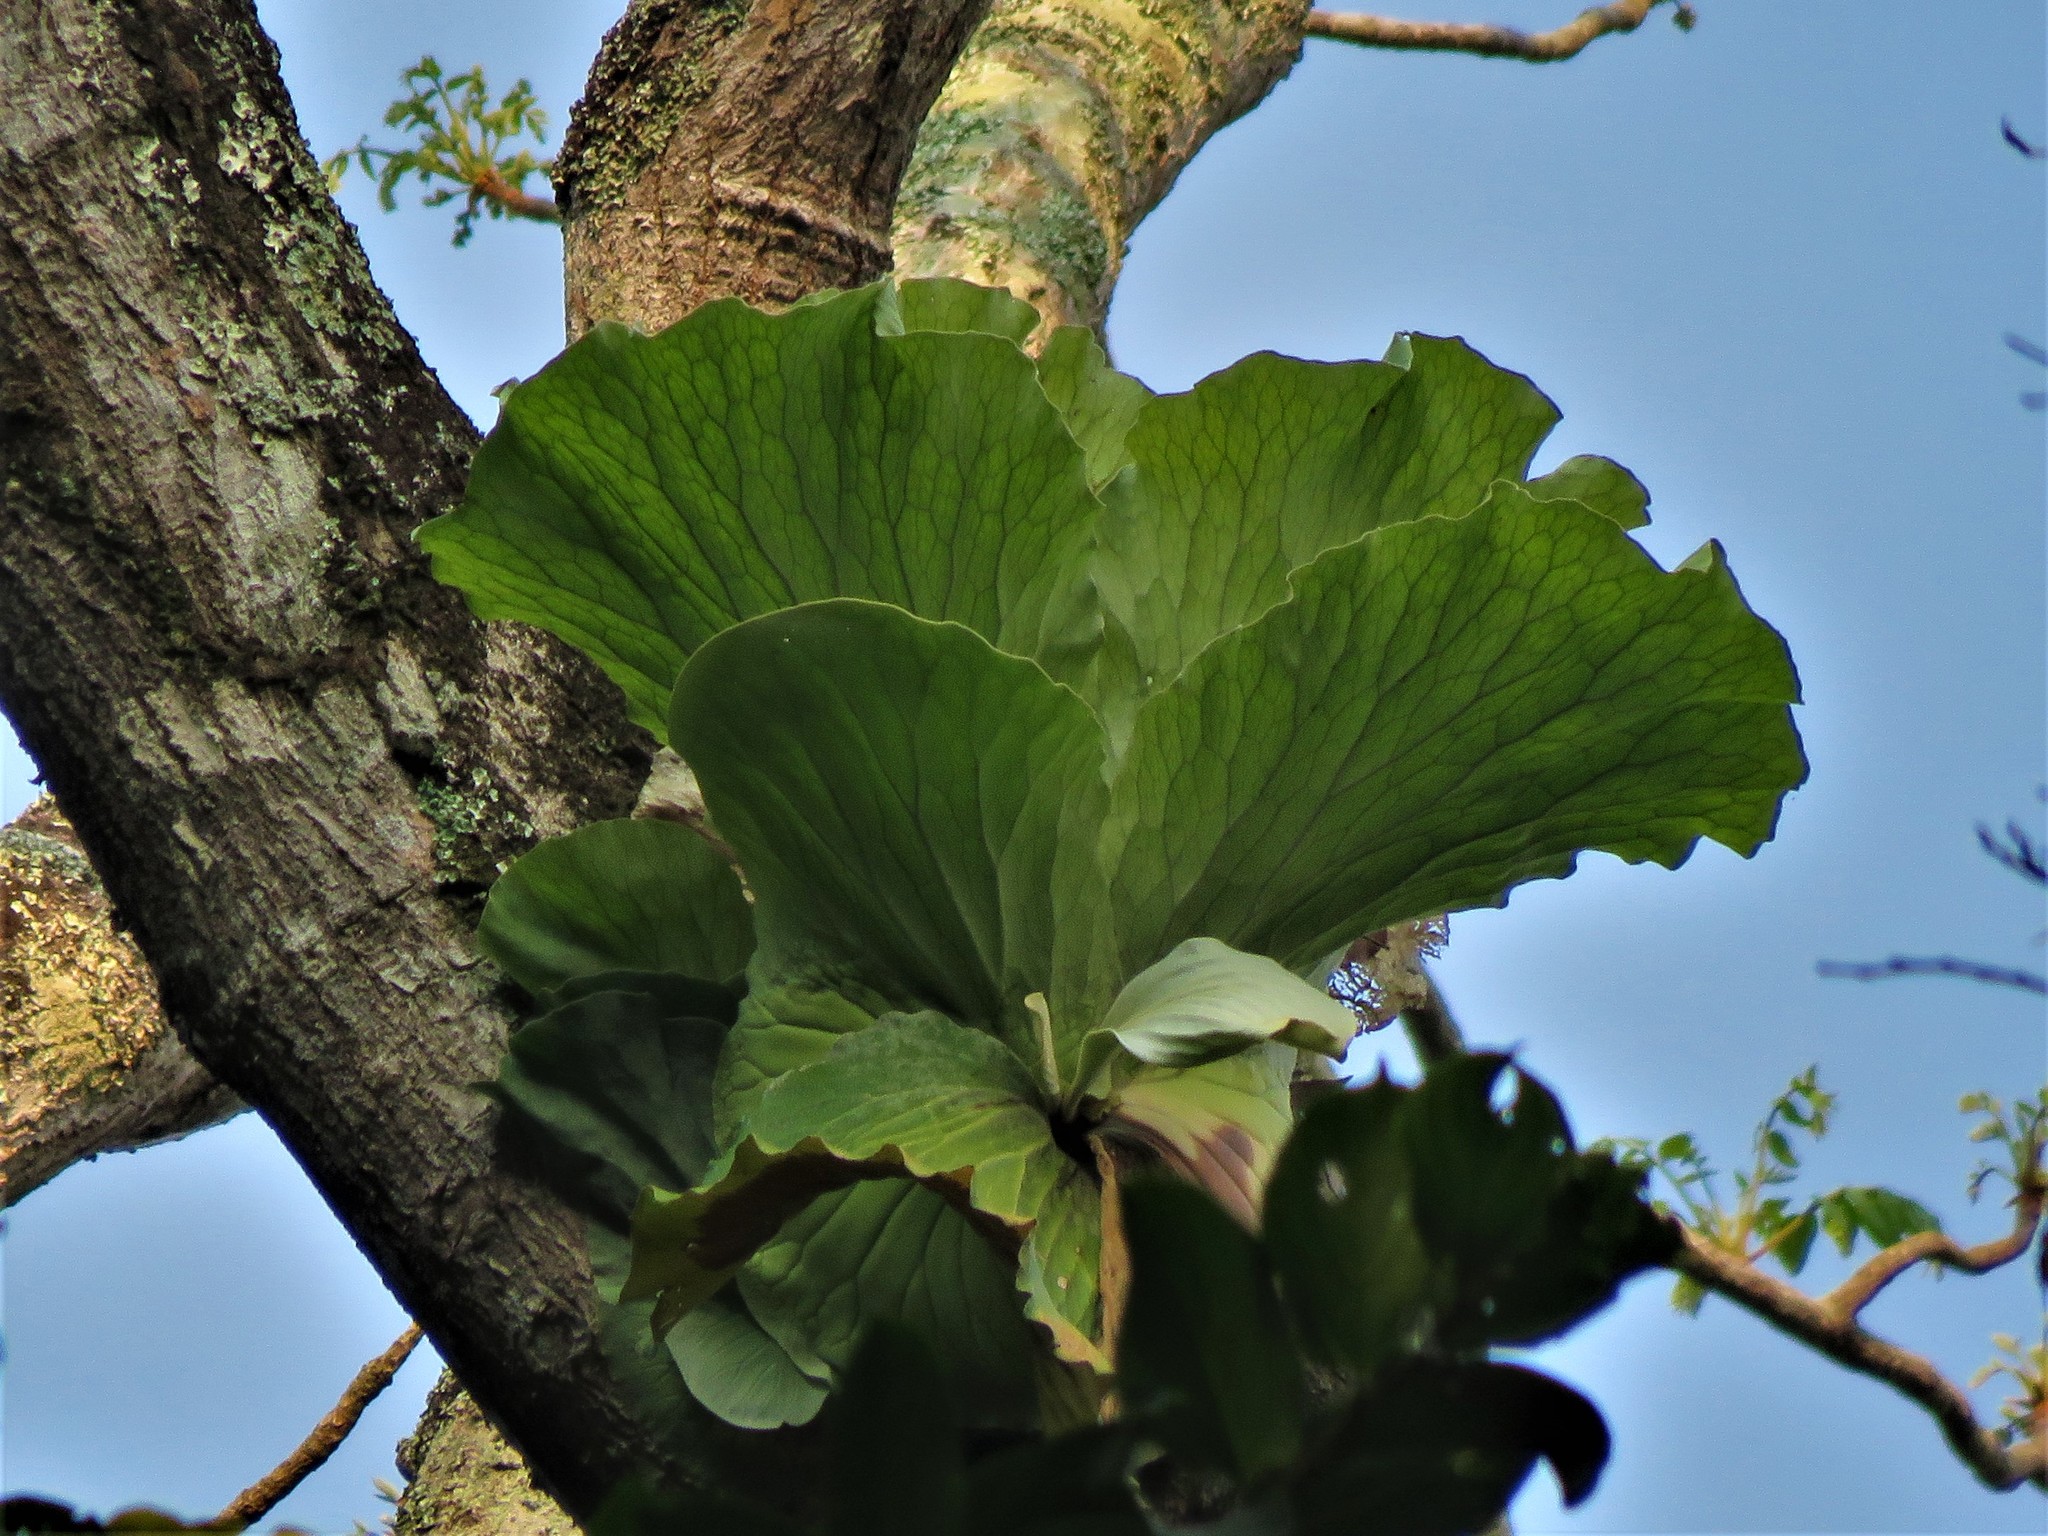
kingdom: Plantae
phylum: Tracheophyta
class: Polypodiopsida
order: Polypodiales
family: Polypodiaceae
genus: Platycerium
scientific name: Platycerium elephantotis
